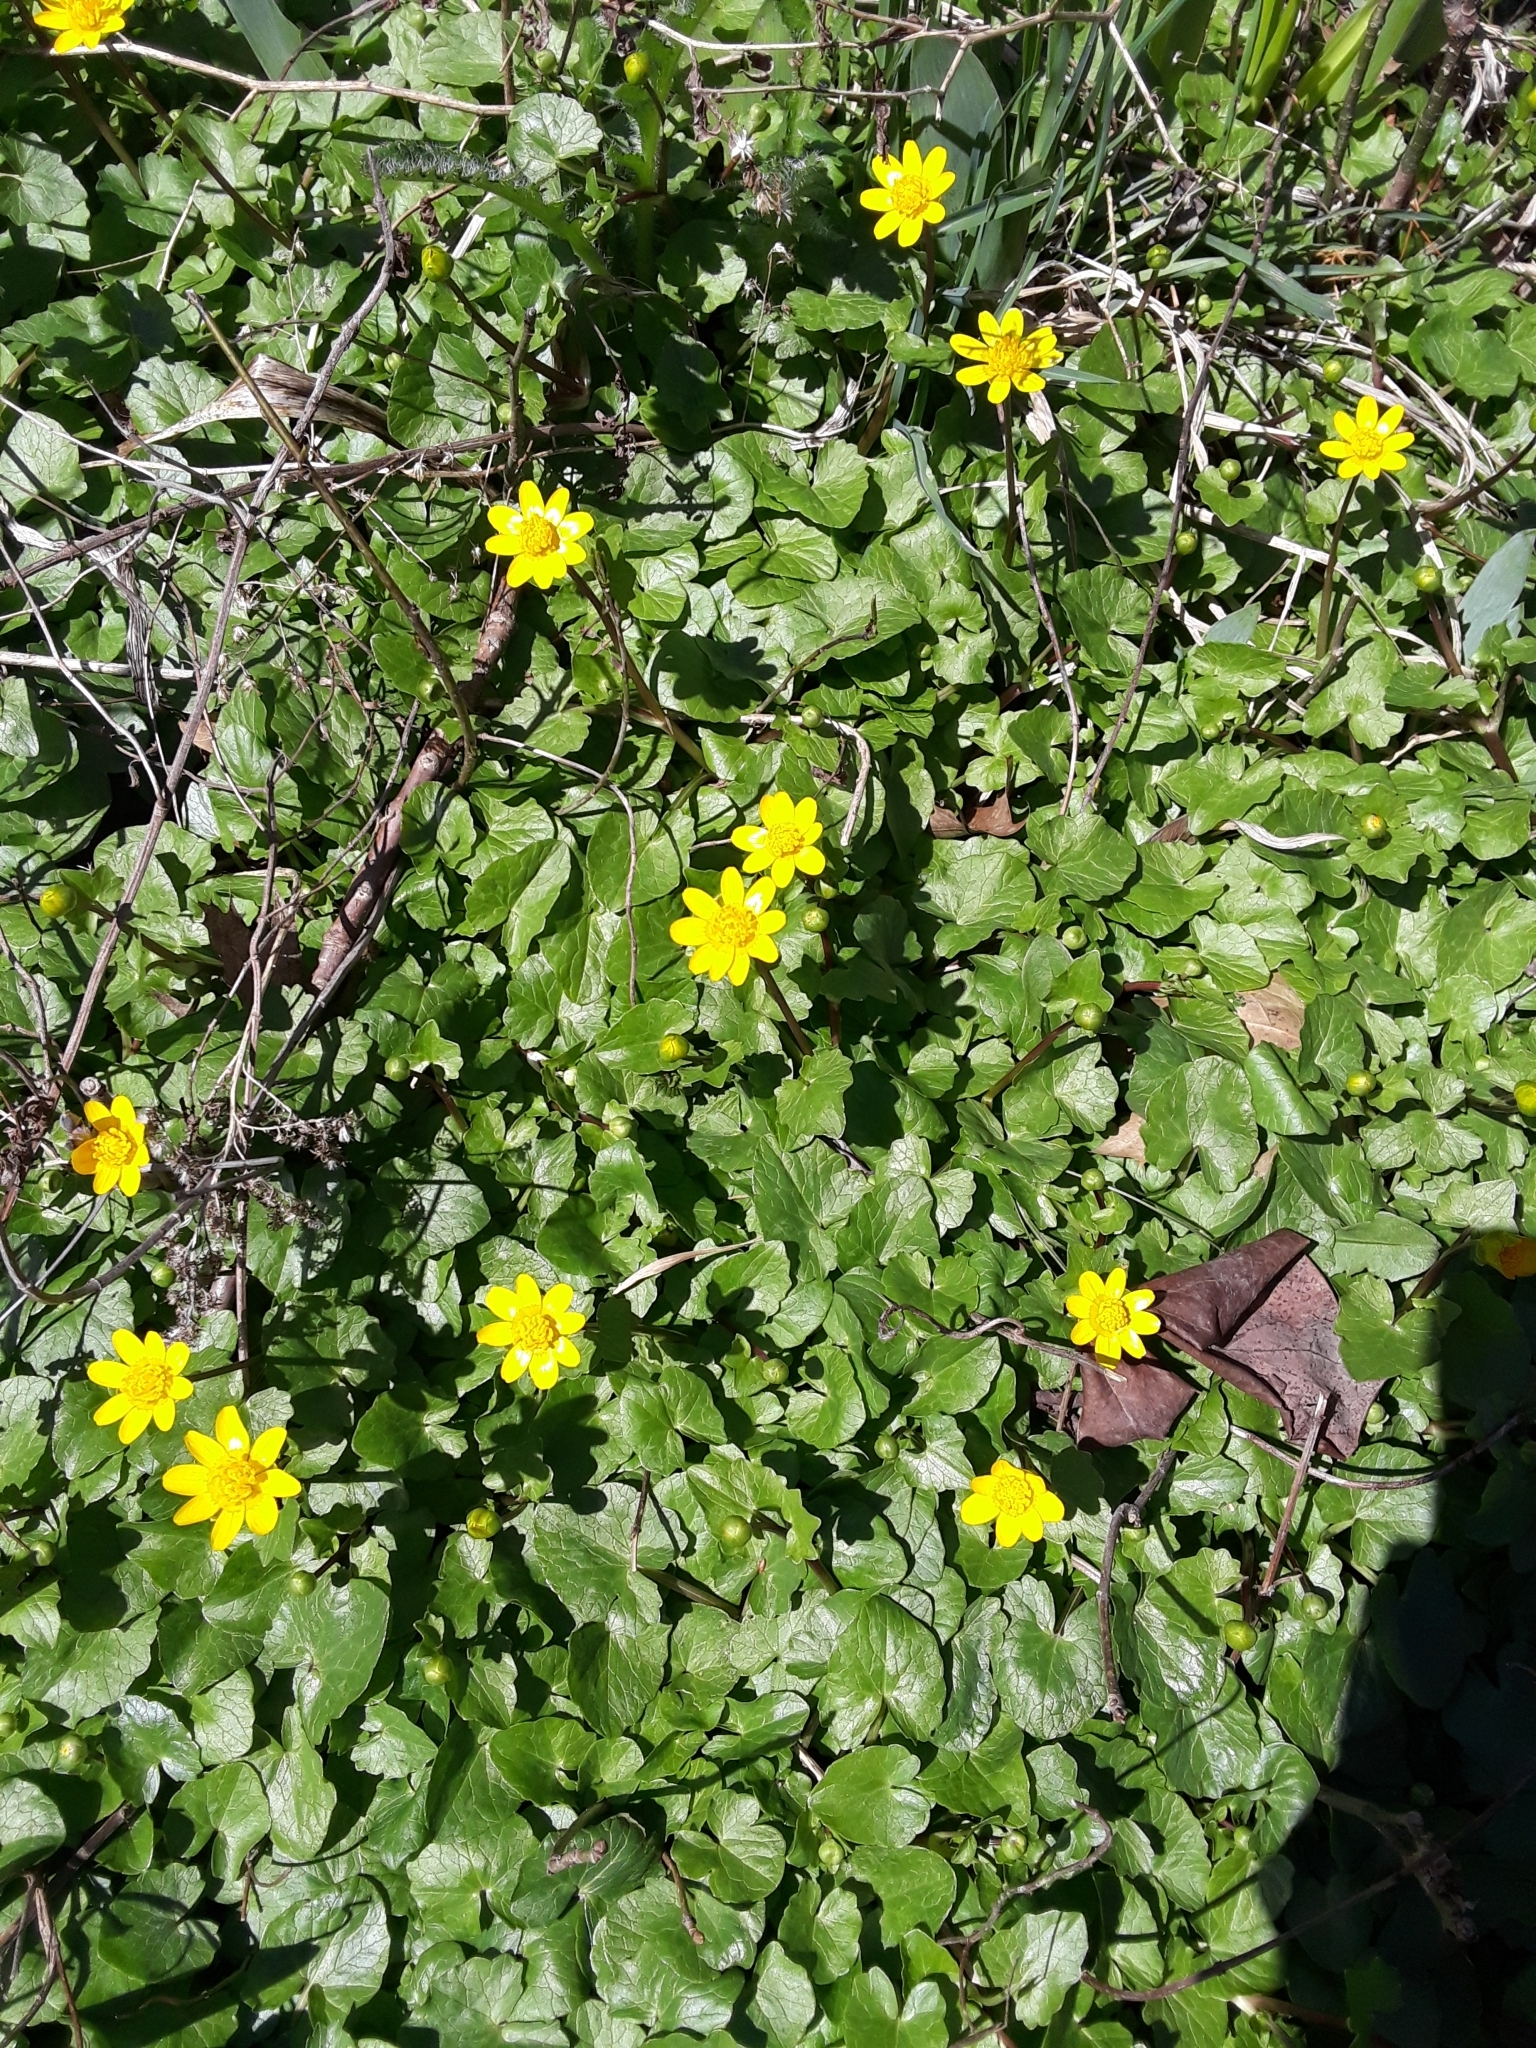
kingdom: Plantae
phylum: Tracheophyta
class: Magnoliopsida
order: Ranunculales
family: Ranunculaceae
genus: Ficaria
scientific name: Ficaria verna
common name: Lesser celandine
